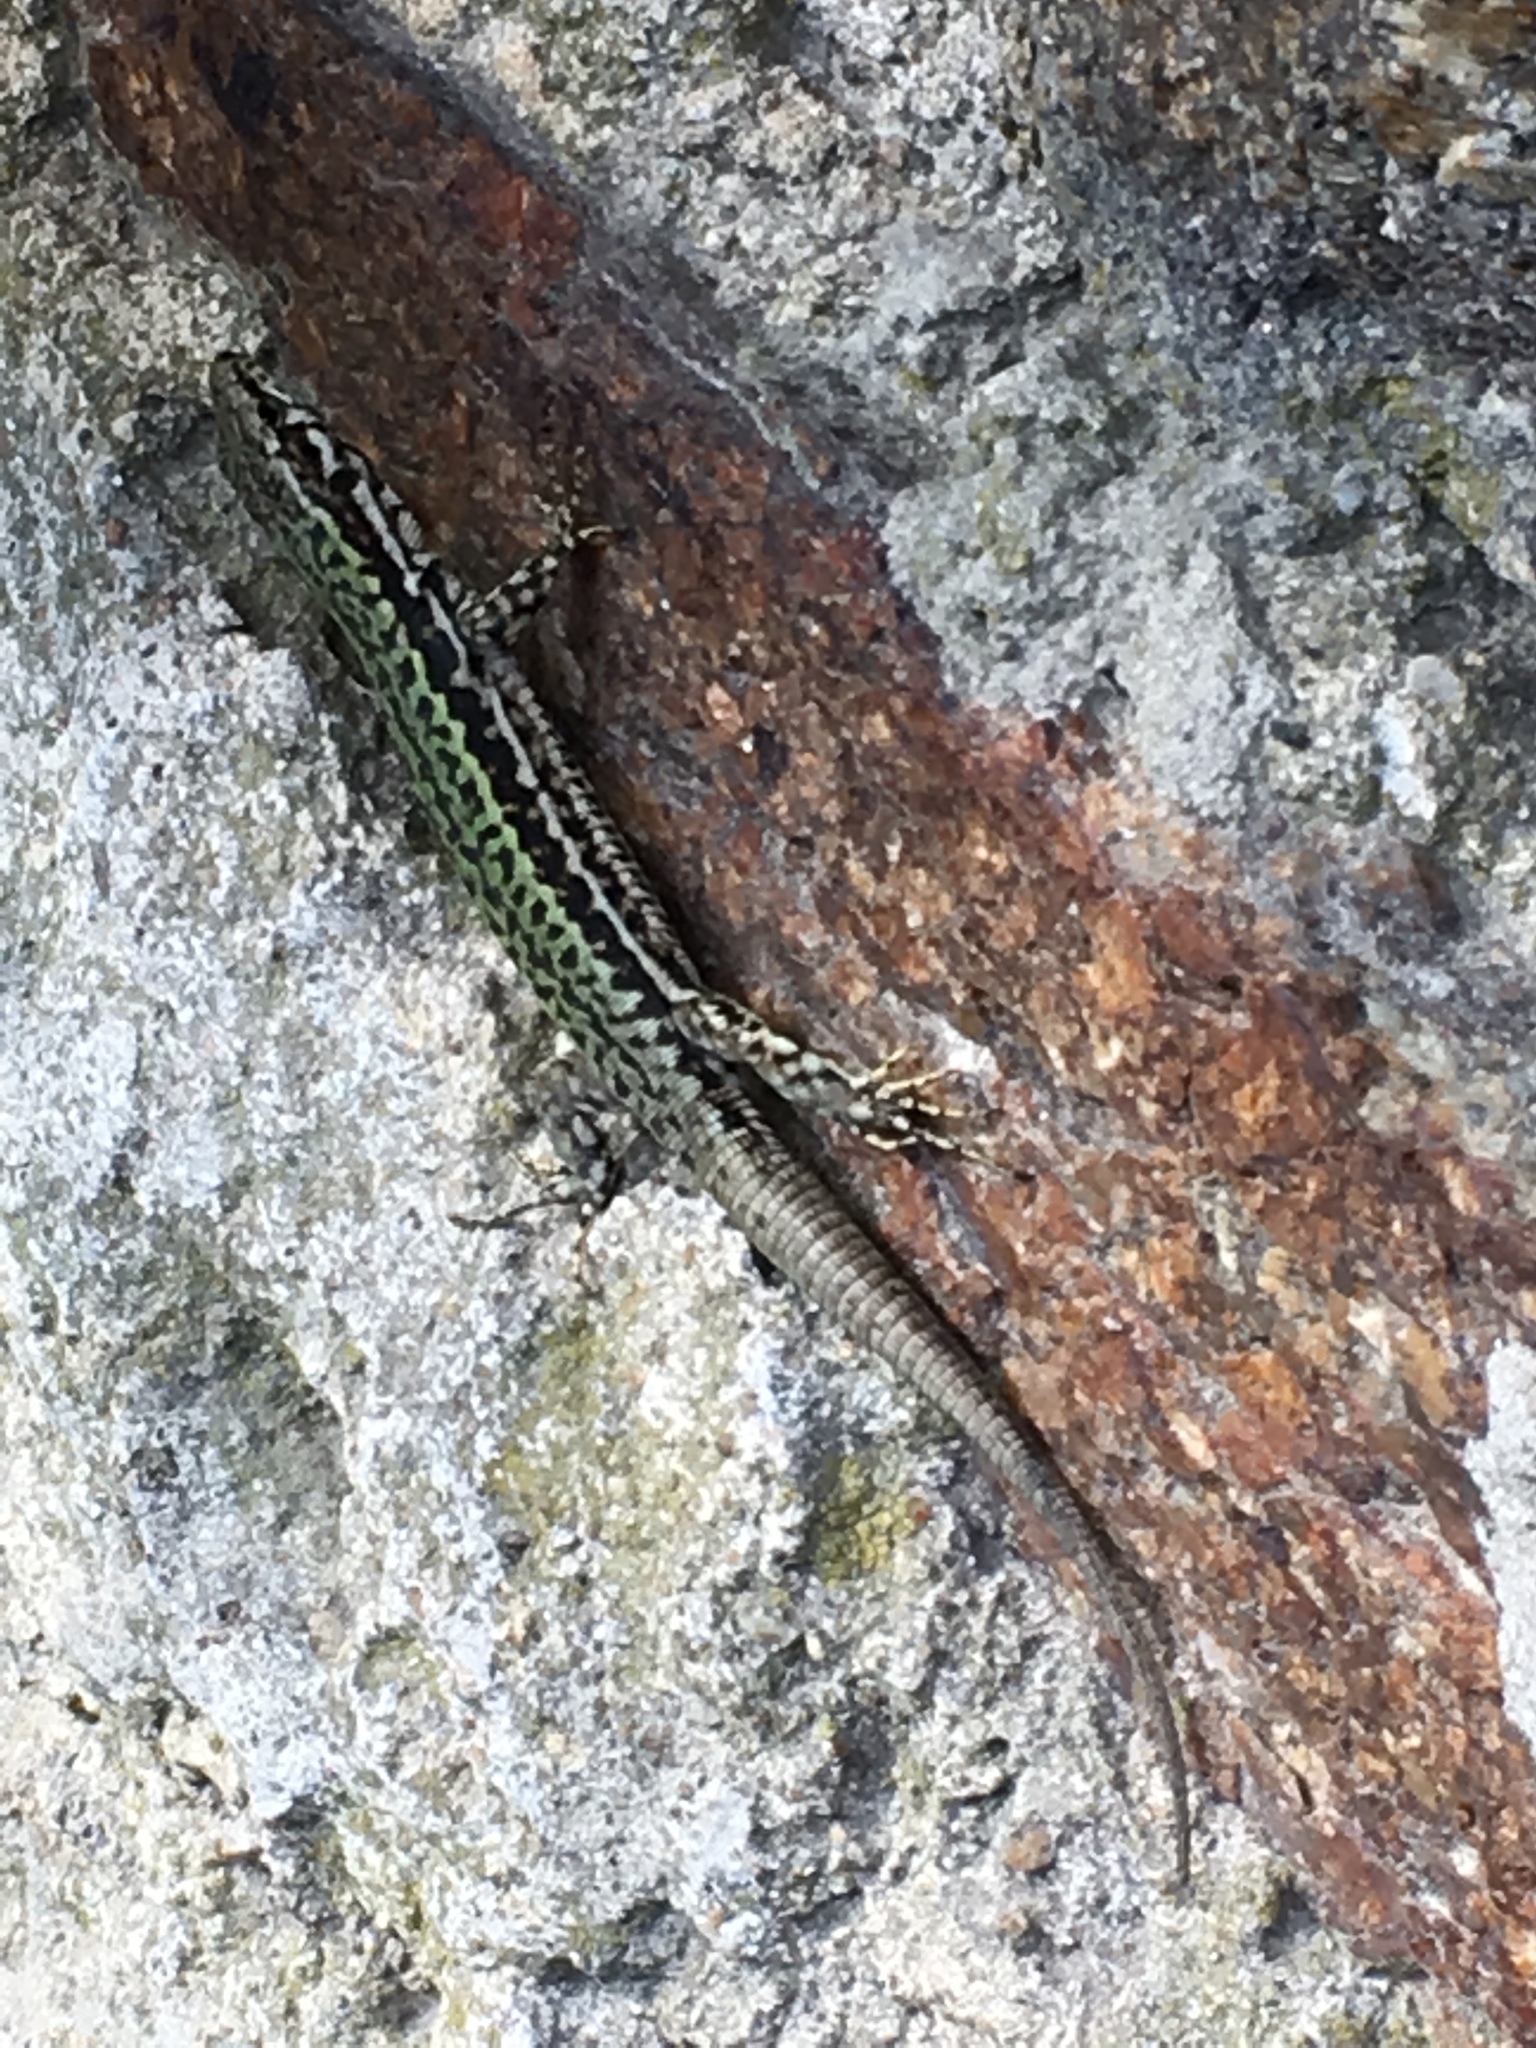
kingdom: Animalia
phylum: Chordata
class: Squamata
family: Lacertidae
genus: Podarcis
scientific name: Podarcis muralis
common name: Common wall lizard
